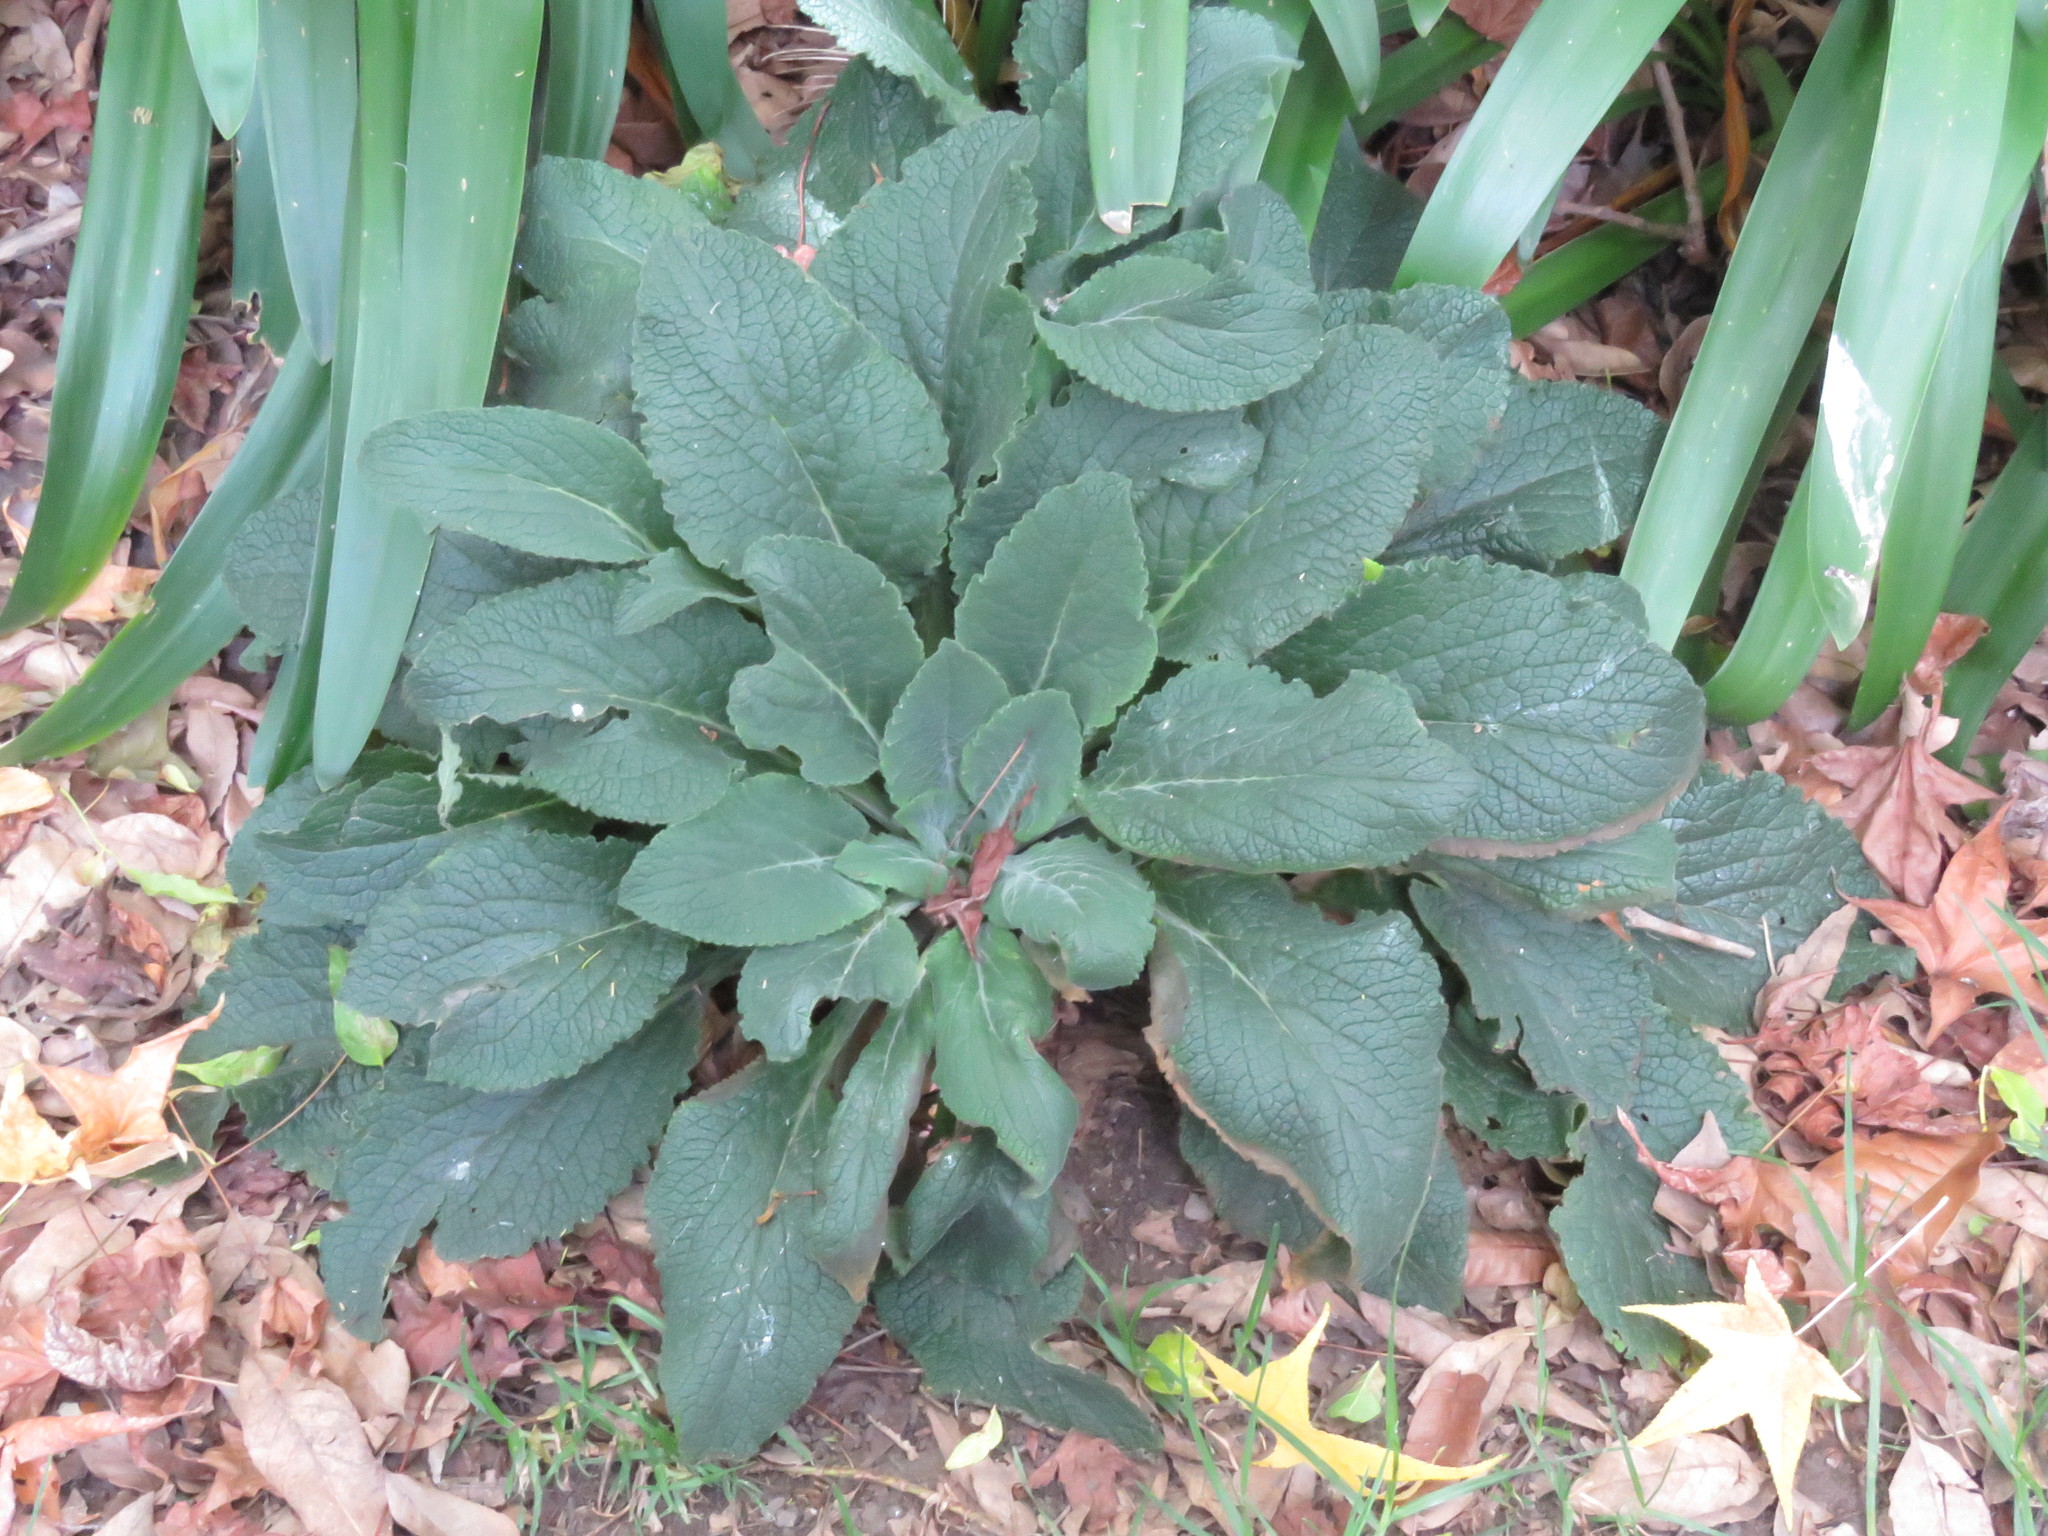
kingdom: Plantae
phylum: Tracheophyta
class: Magnoliopsida
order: Lamiales
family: Plantaginaceae
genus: Digitalis
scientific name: Digitalis purpurea
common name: Foxglove
